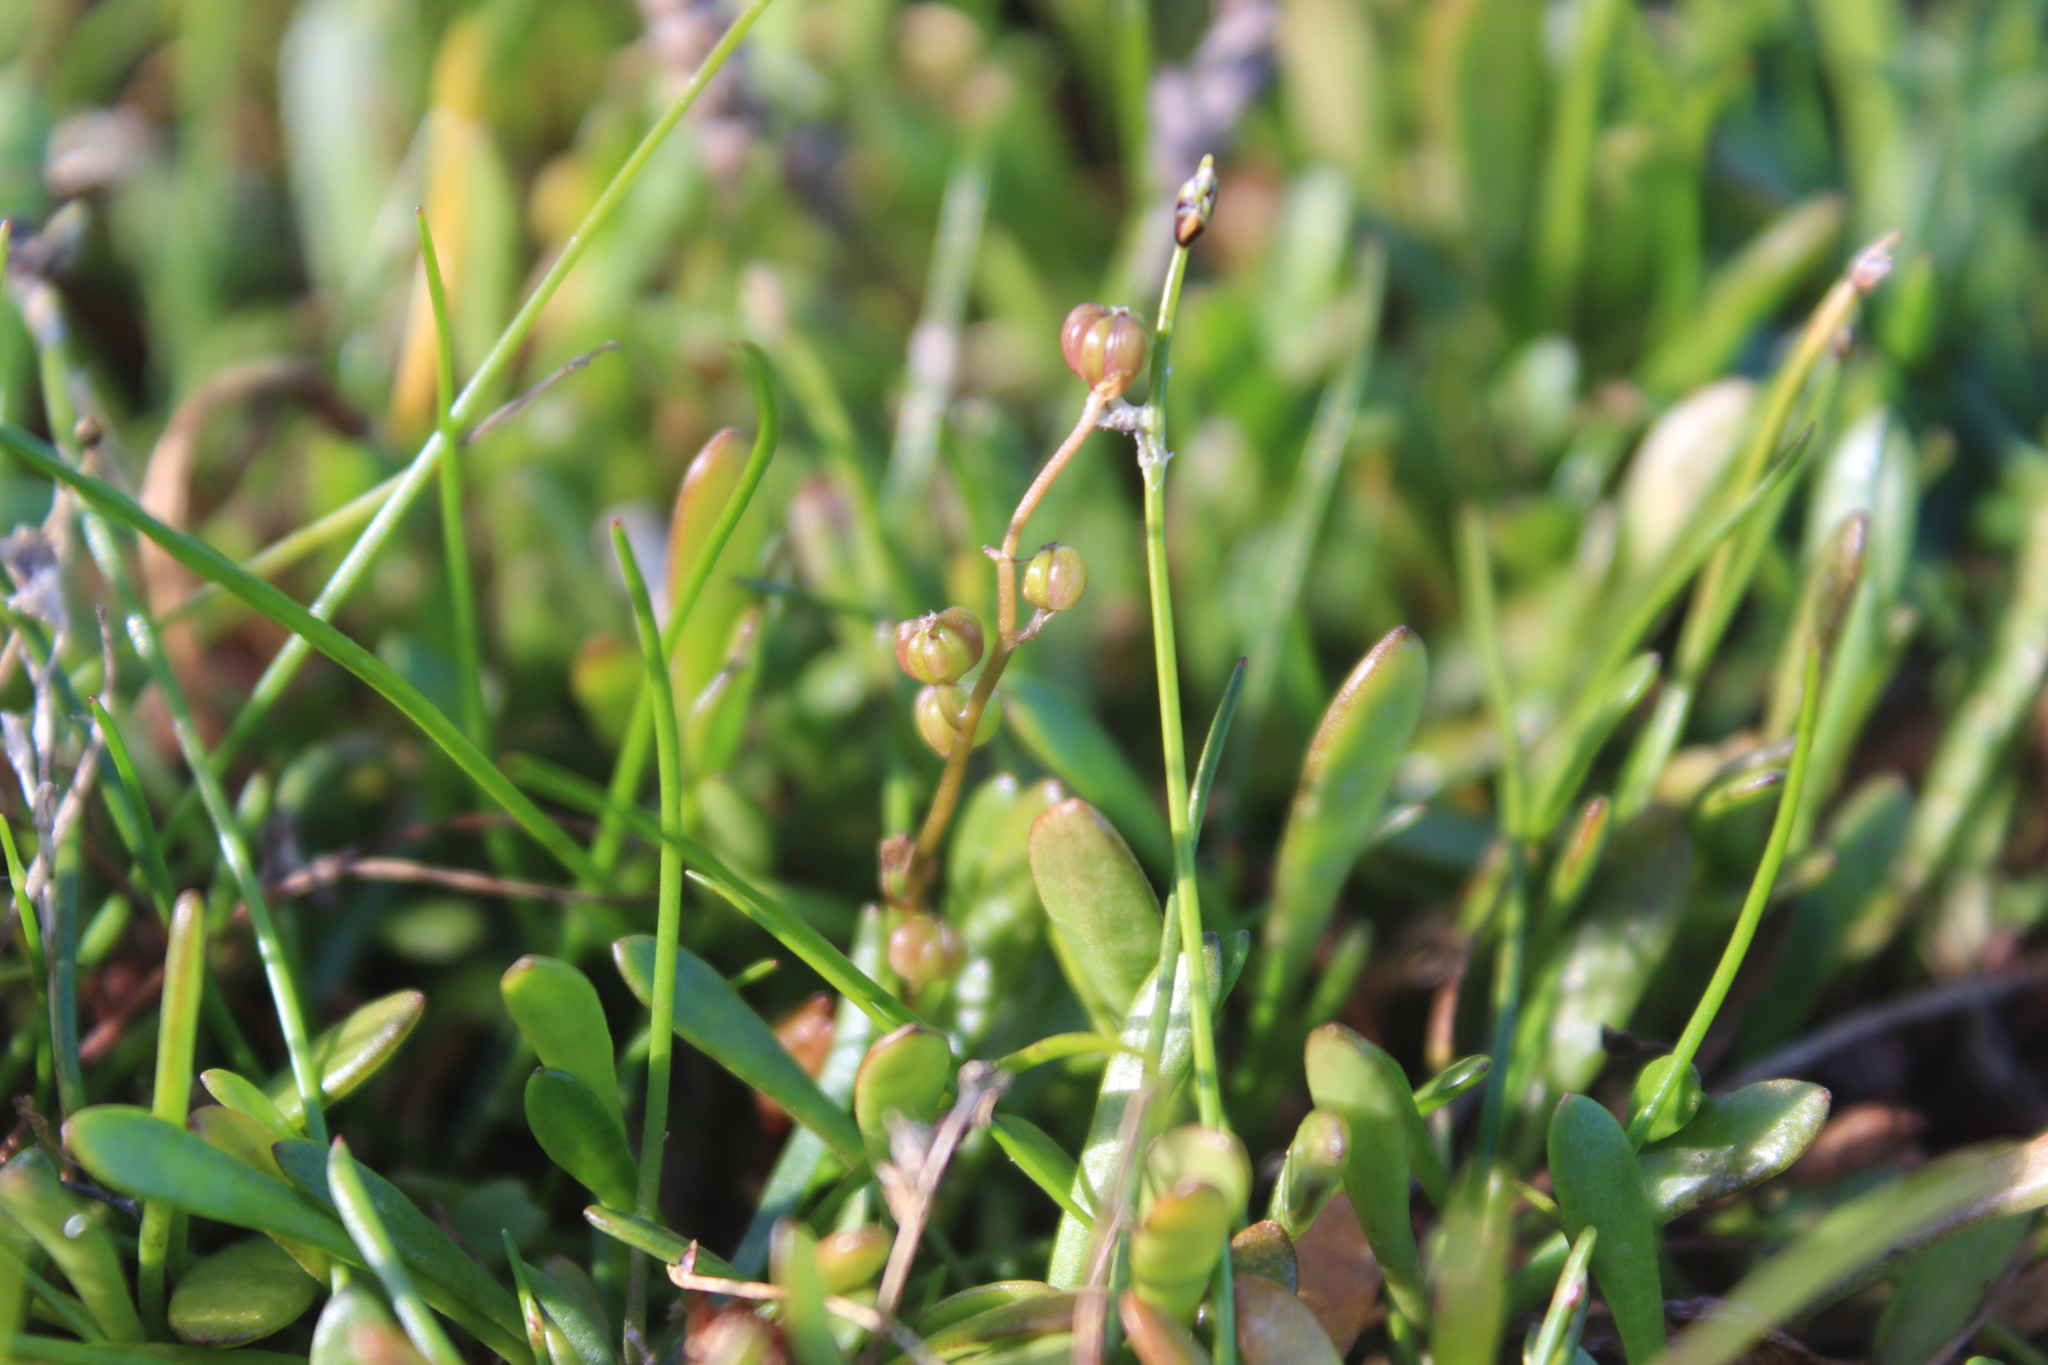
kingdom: Plantae
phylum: Tracheophyta
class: Liliopsida
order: Alismatales
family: Juncaginaceae
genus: Triglochin
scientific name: Triglochin striata
